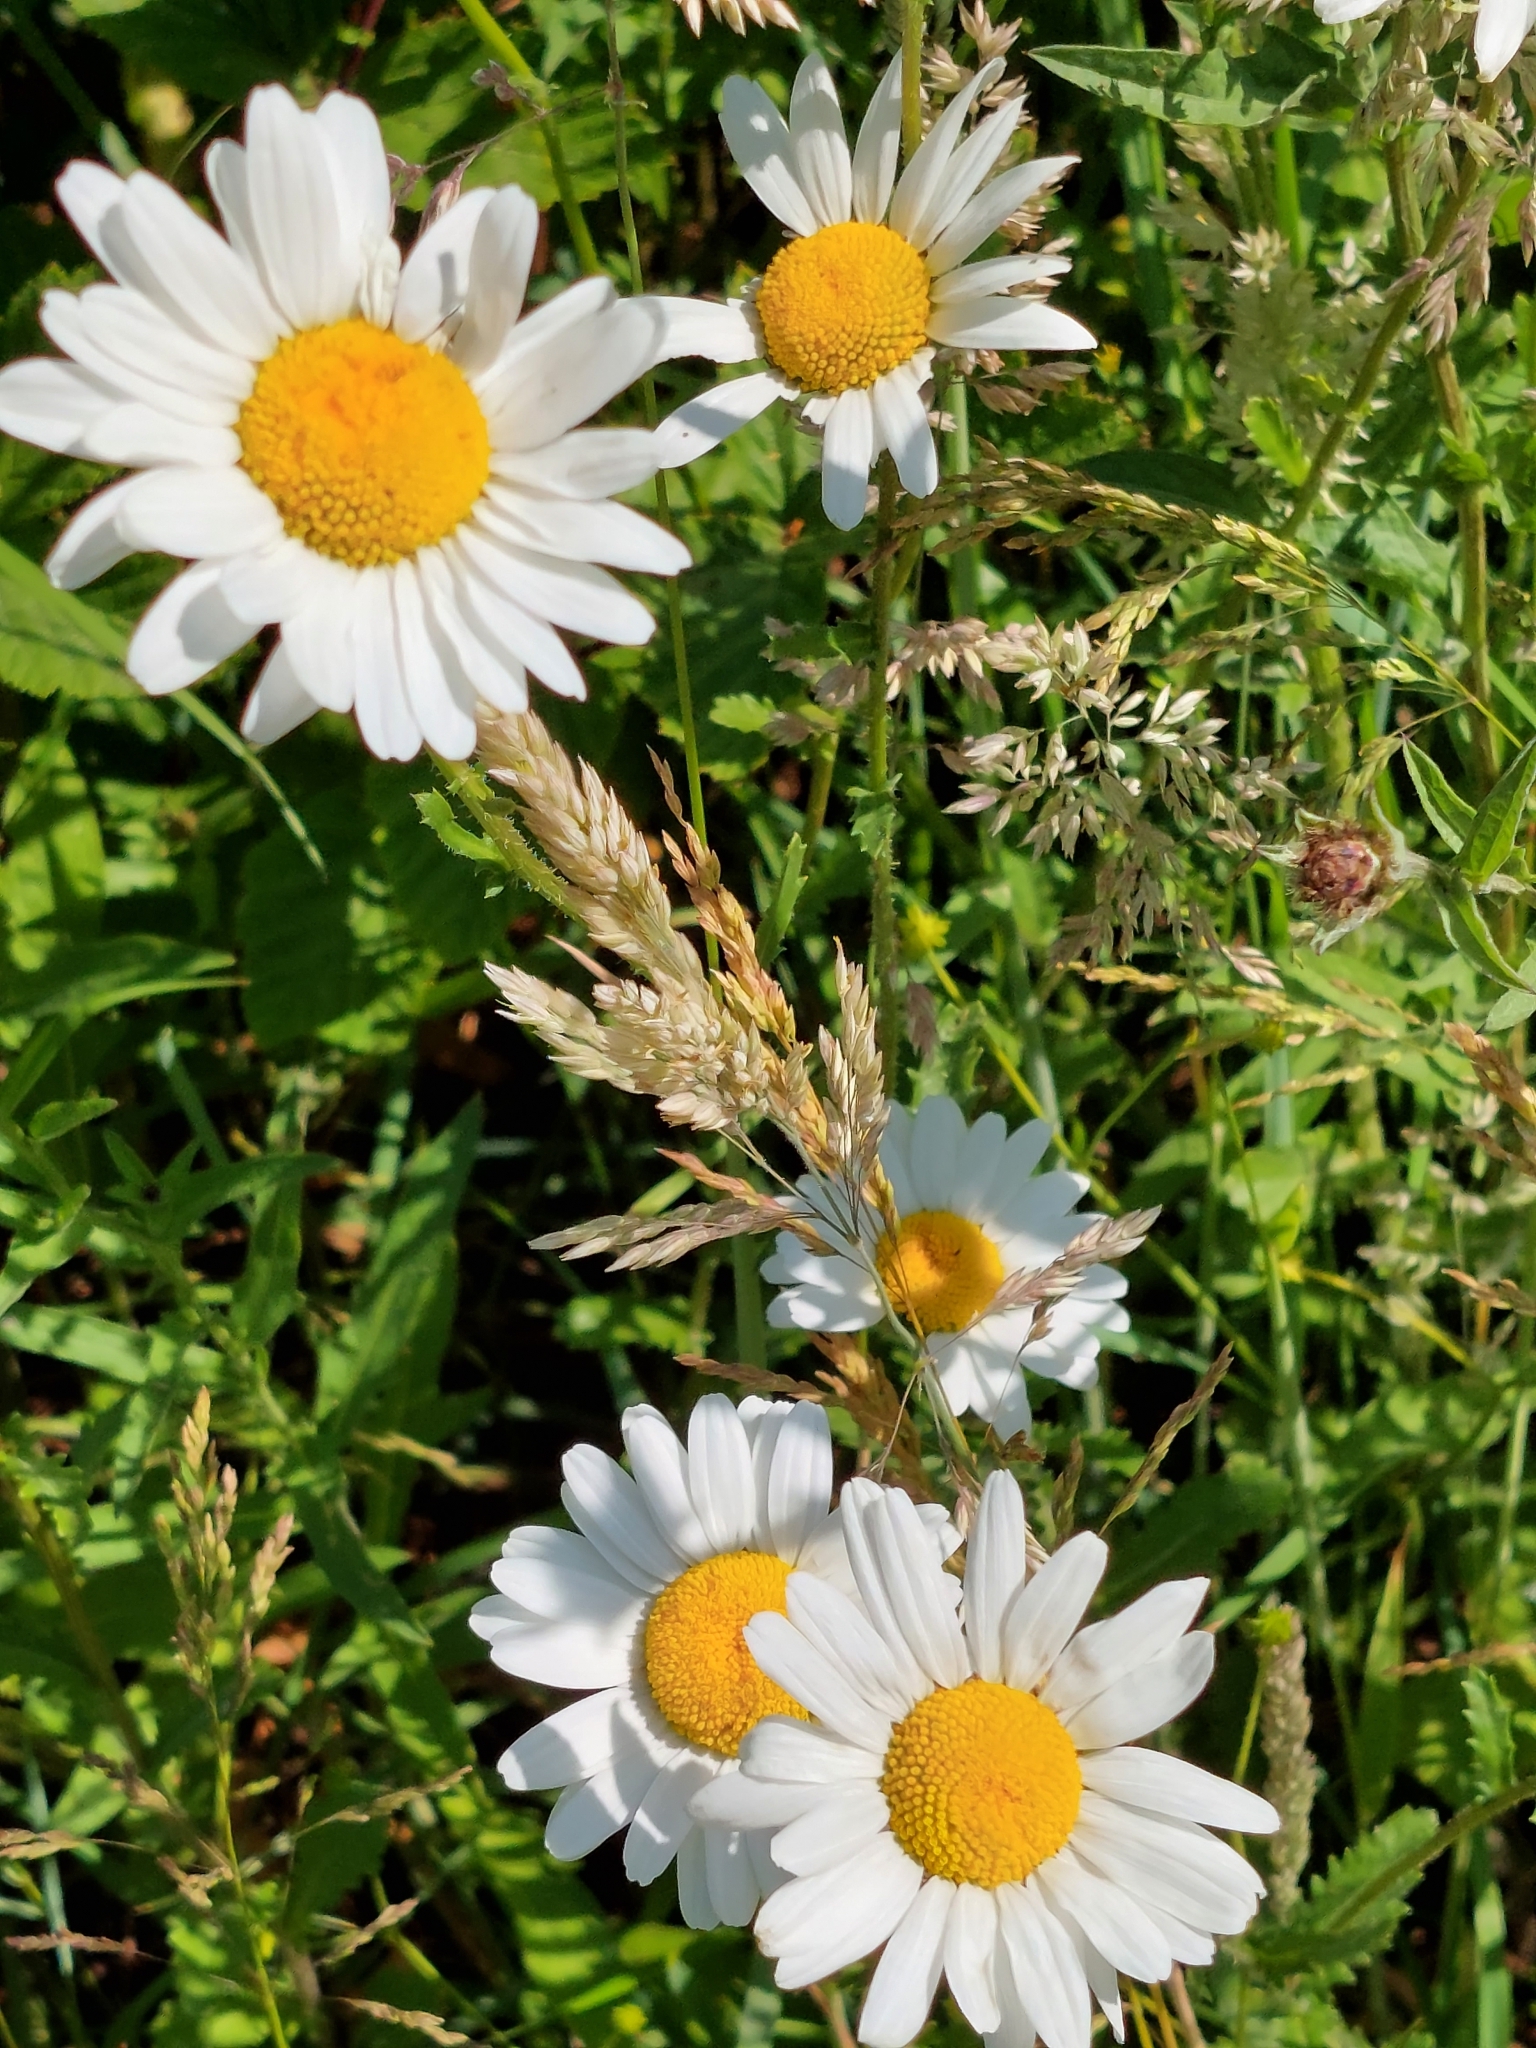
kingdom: Plantae
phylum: Tracheophyta
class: Magnoliopsida
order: Asterales
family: Asteraceae
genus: Leucanthemum
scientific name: Leucanthemum vulgare
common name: Oxeye daisy
